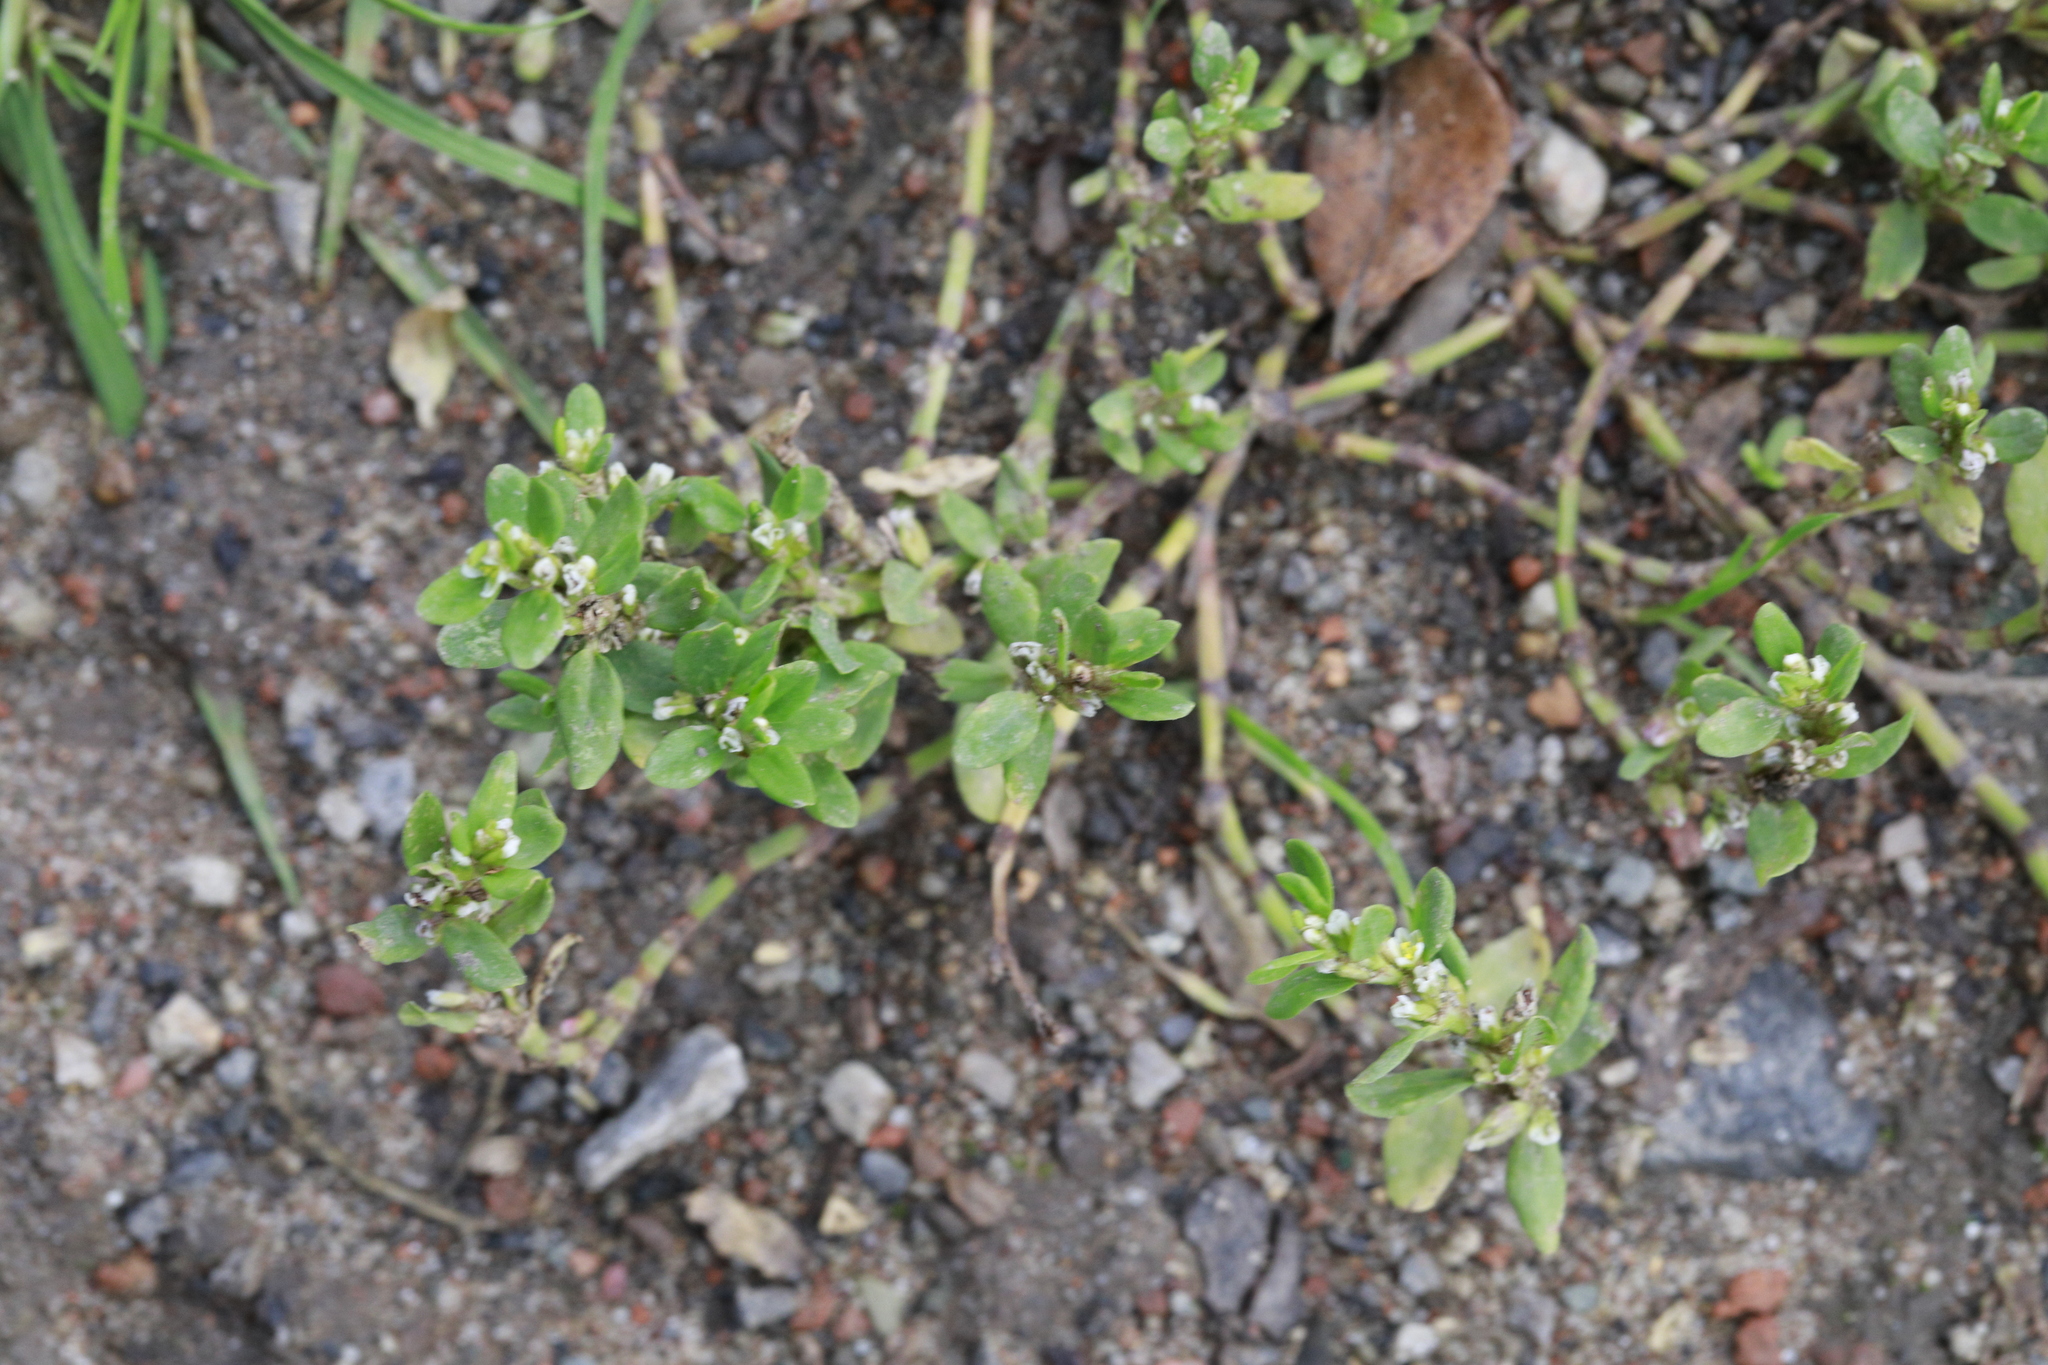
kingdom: Plantae
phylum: Tracheophyta
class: Magnoliopsida
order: Caryophyllales
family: Polygonaceae
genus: Polygonum
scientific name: Polygonum aviculare
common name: Prostrate knotweed
